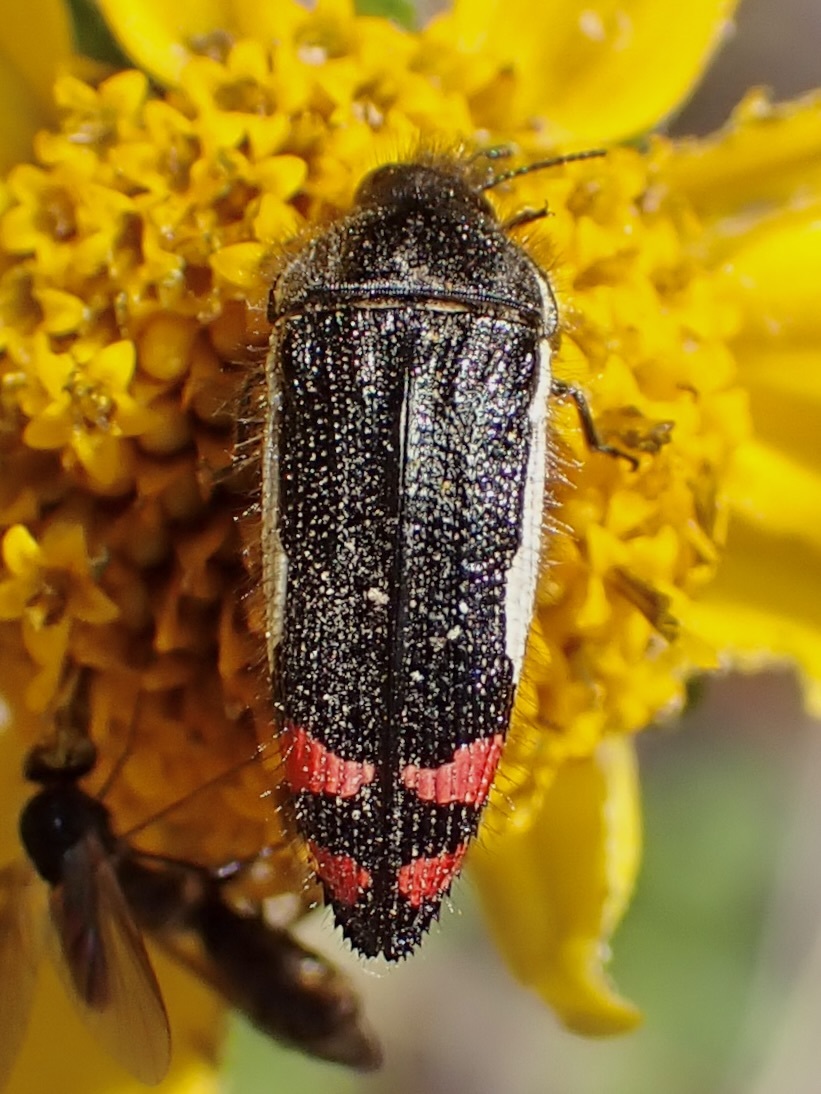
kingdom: Animalia
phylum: Arthropoda
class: Insecta
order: Coleoptera
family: Buprestidae
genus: Acmaeodera
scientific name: Acmaeodera chiricahuae
